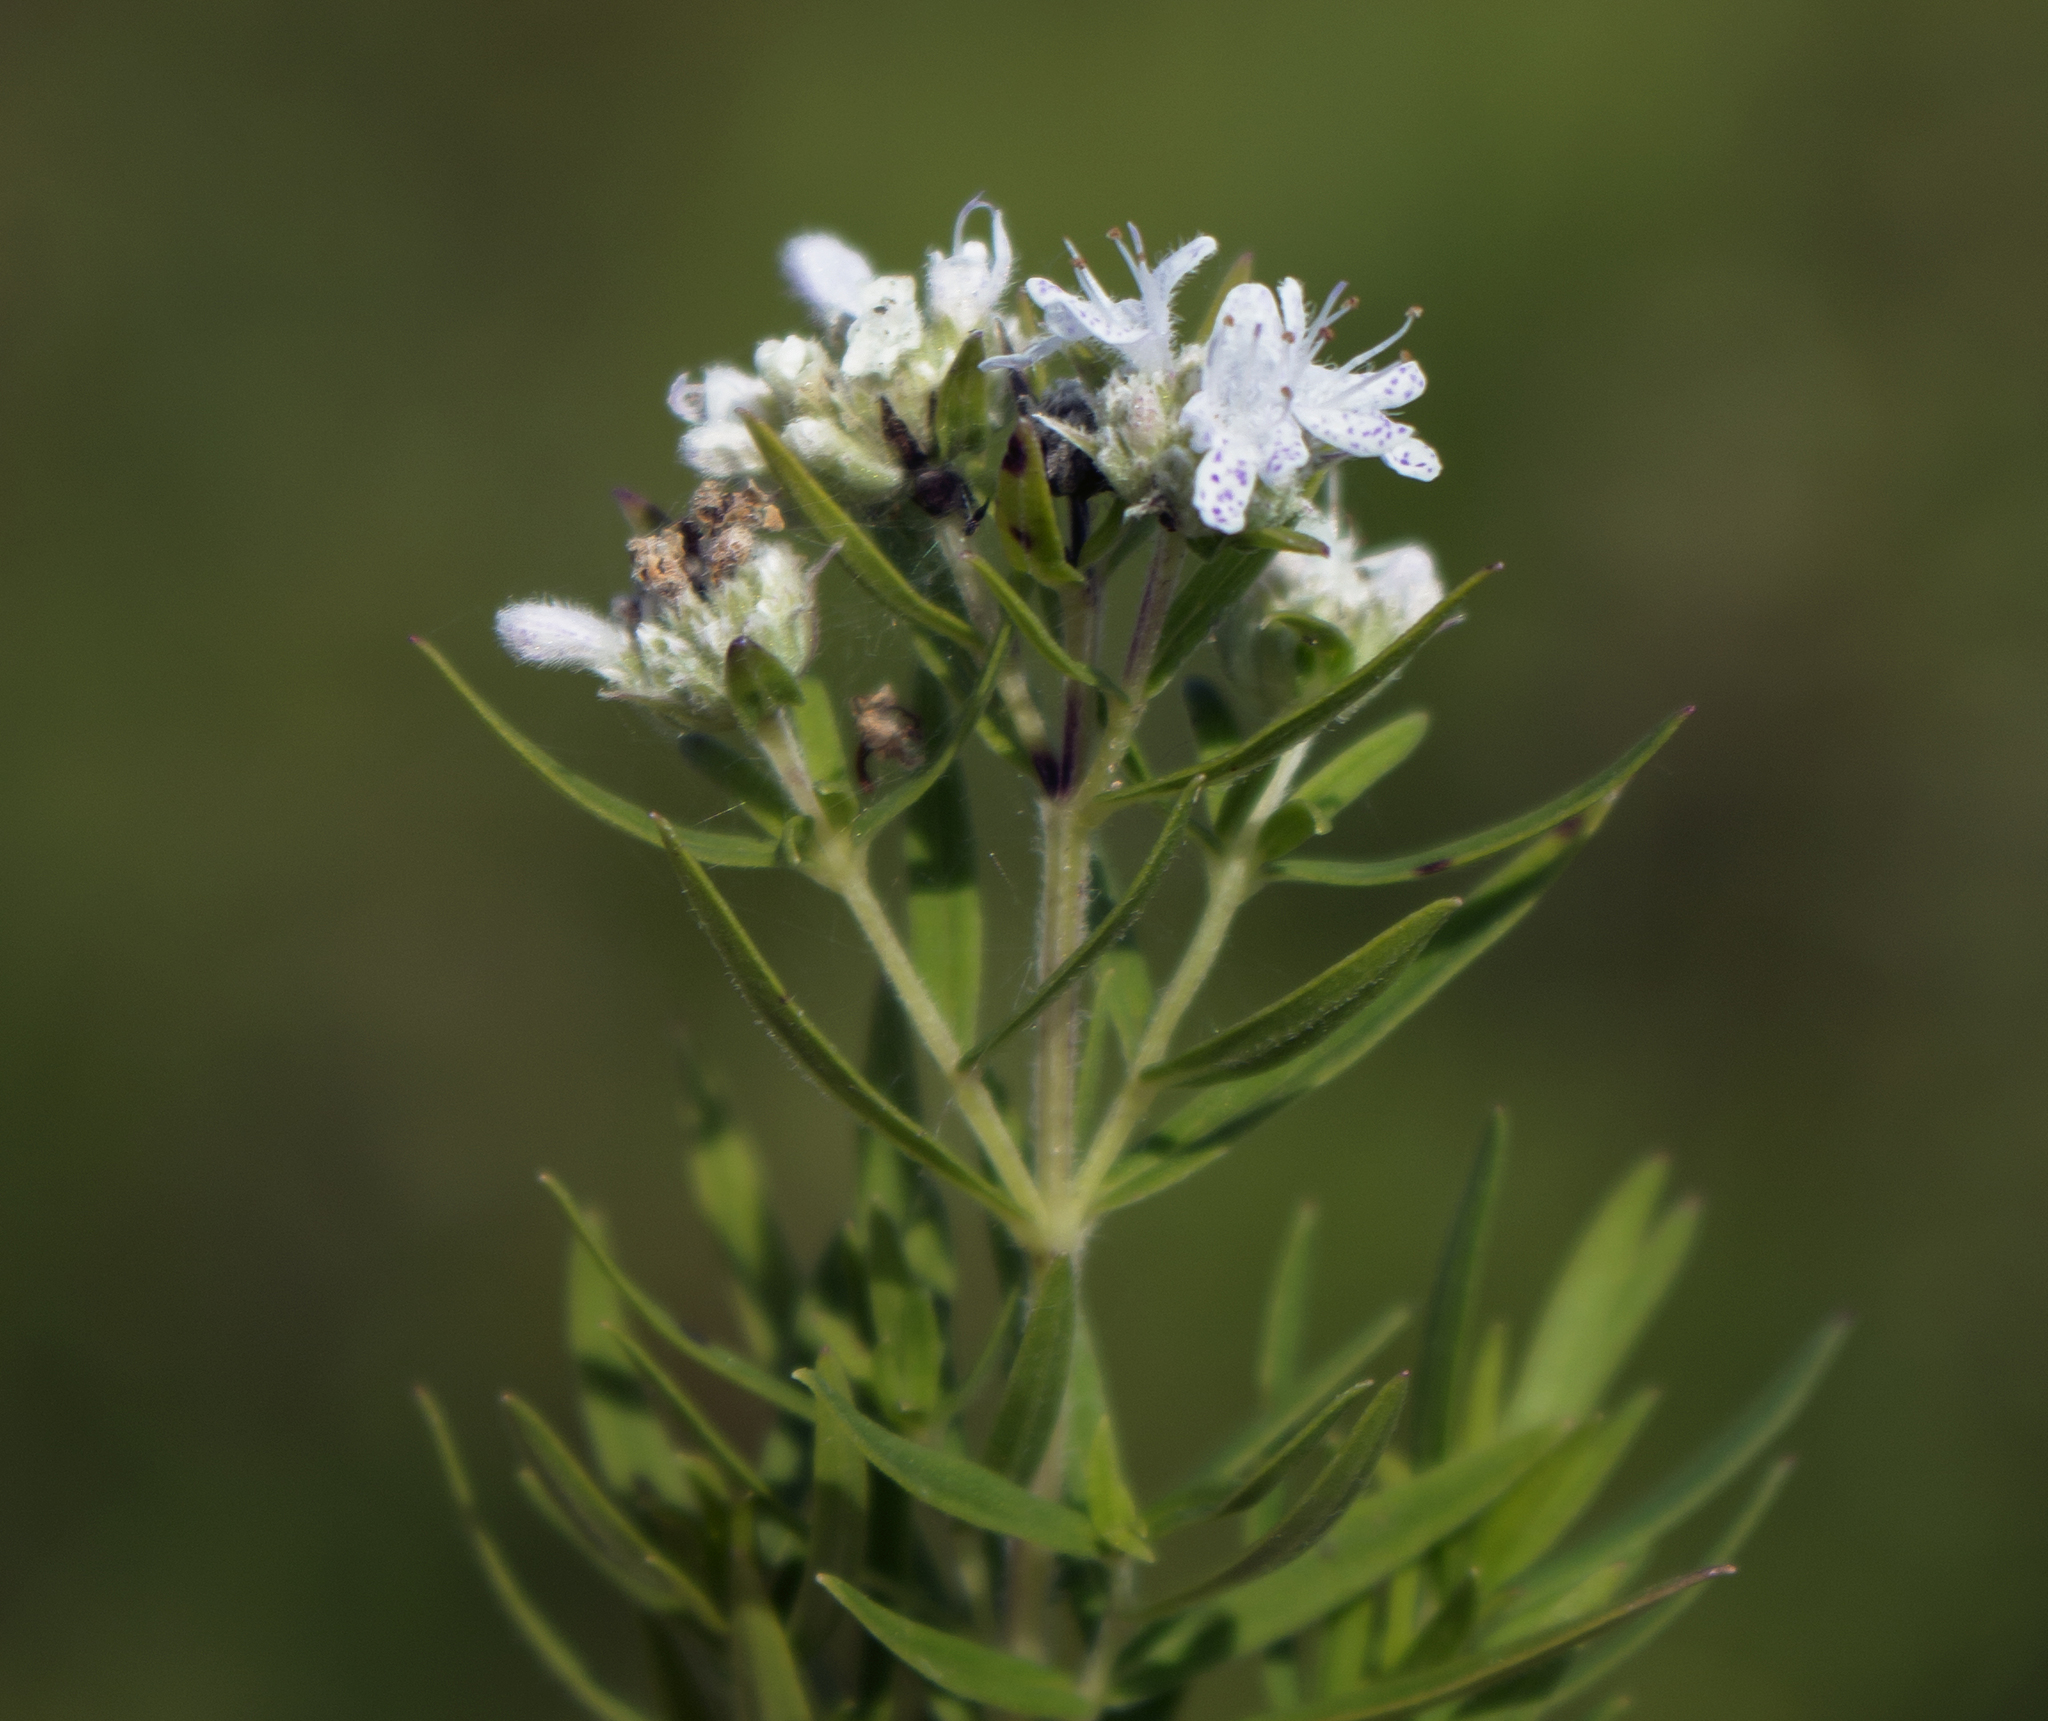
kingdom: Plantae
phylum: Tracheophyta
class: Magnoliopsida
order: Lamiales
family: Lamiaceae
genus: Pycnanthemum
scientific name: Pycnanthemum virginianum
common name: Virginia mountain-mint
